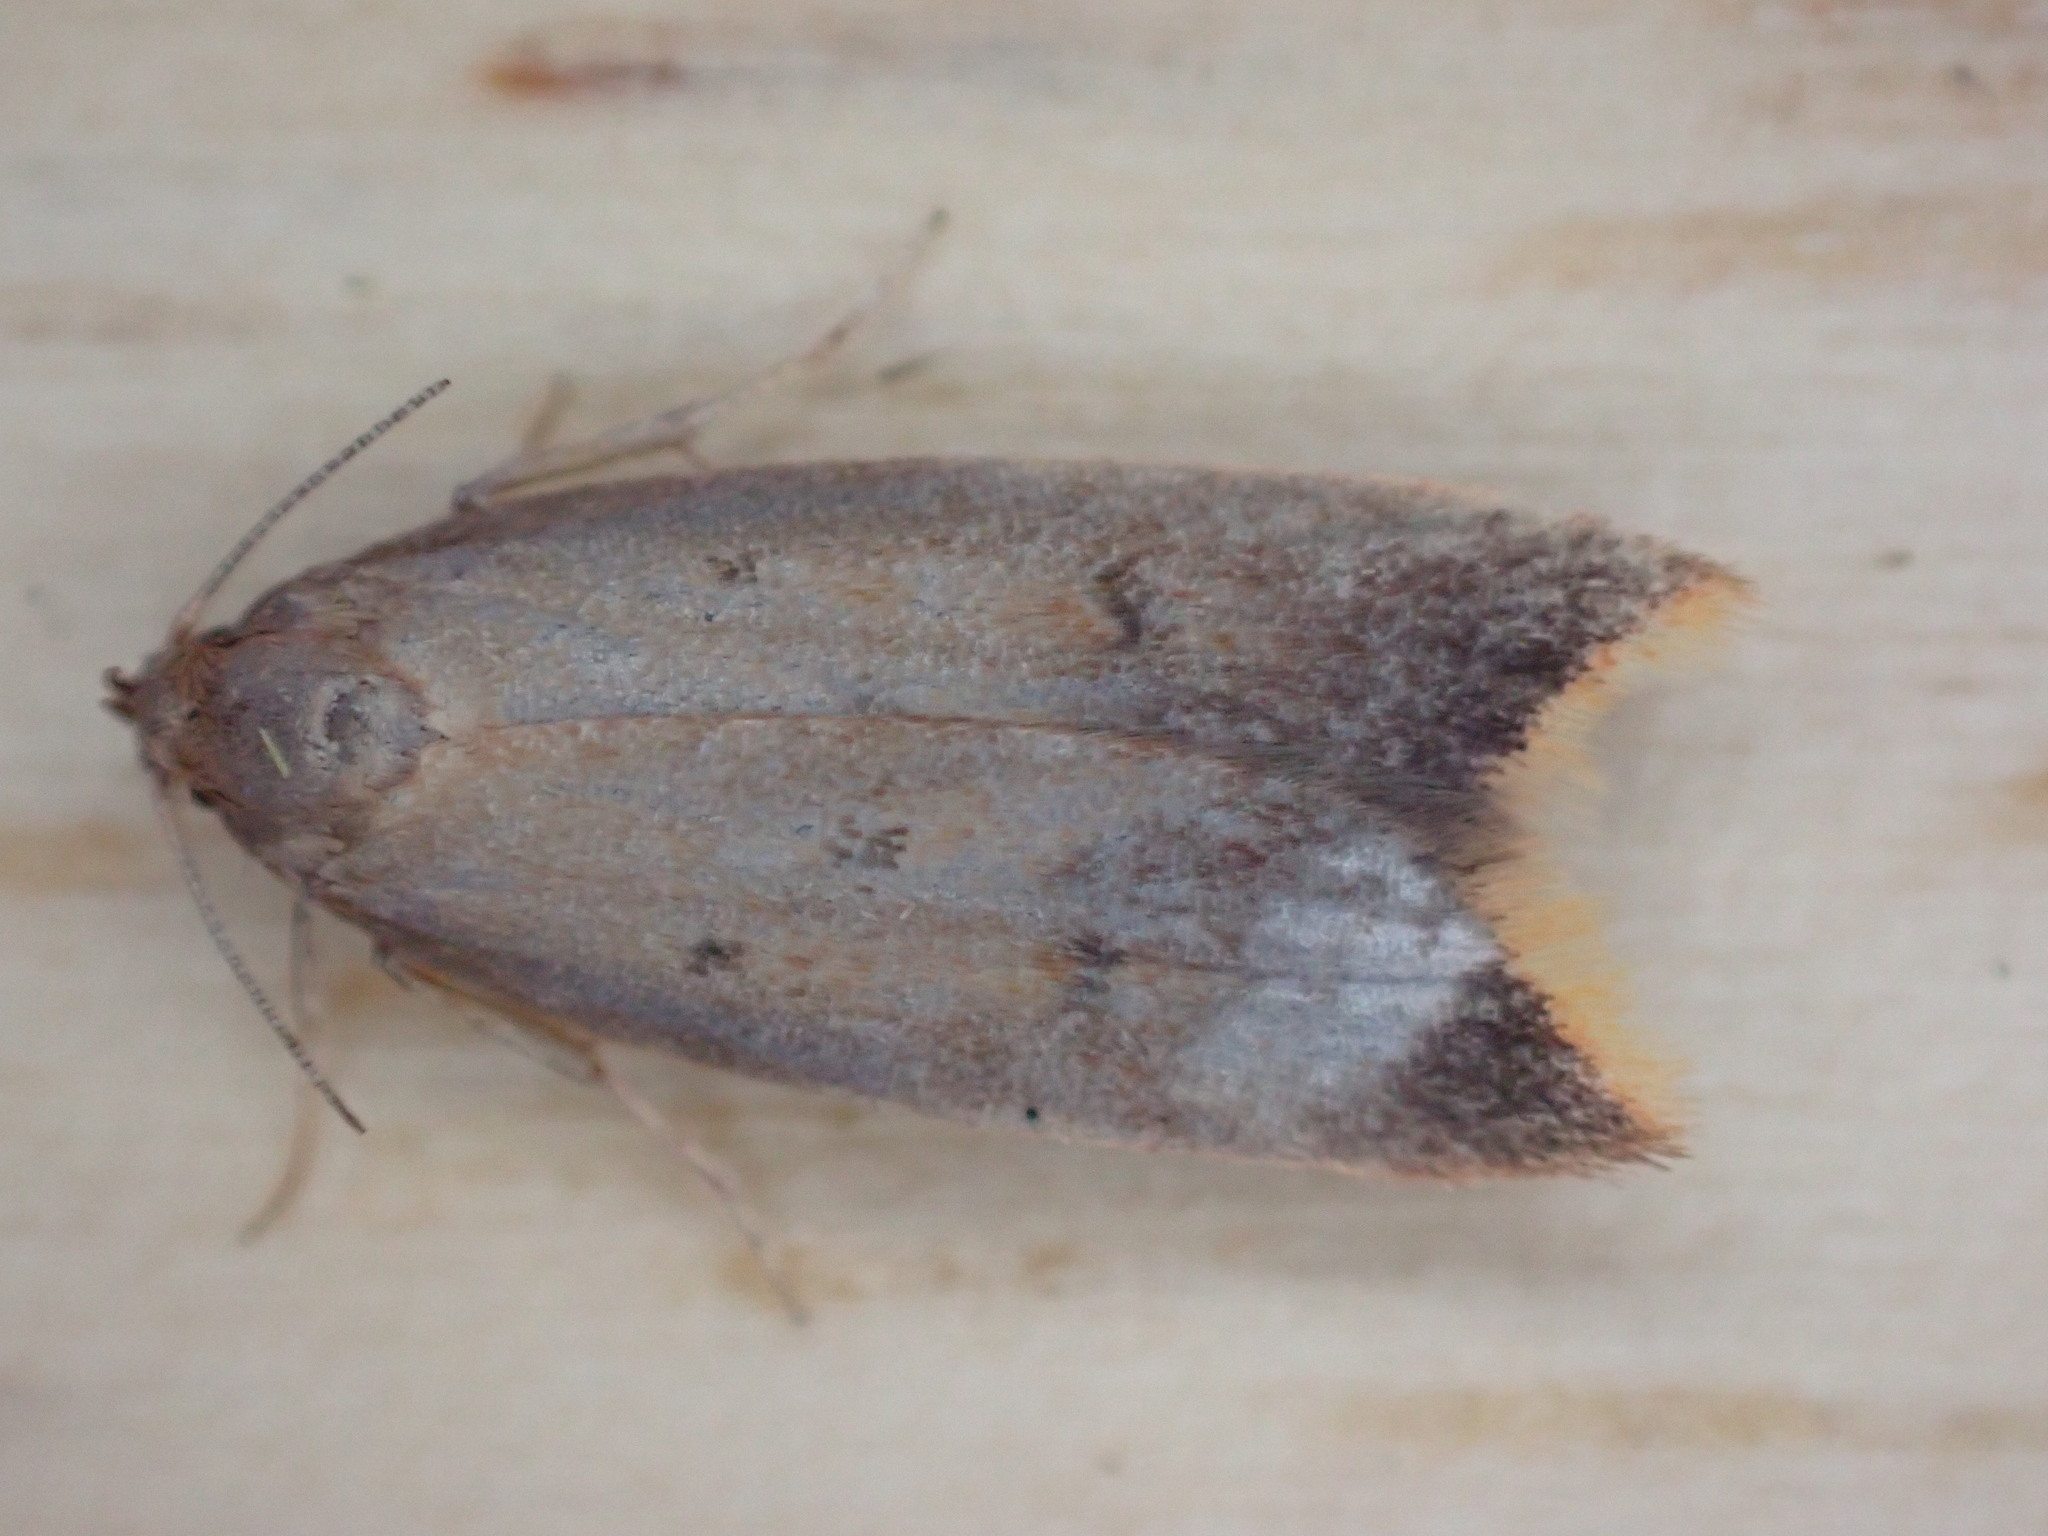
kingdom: Animalia
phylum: Arthropoda
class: Insecta
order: Lepidoptera
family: Oecophoridae
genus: Tachystola
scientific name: Tachystola acroxantha
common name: Ruddy streak
